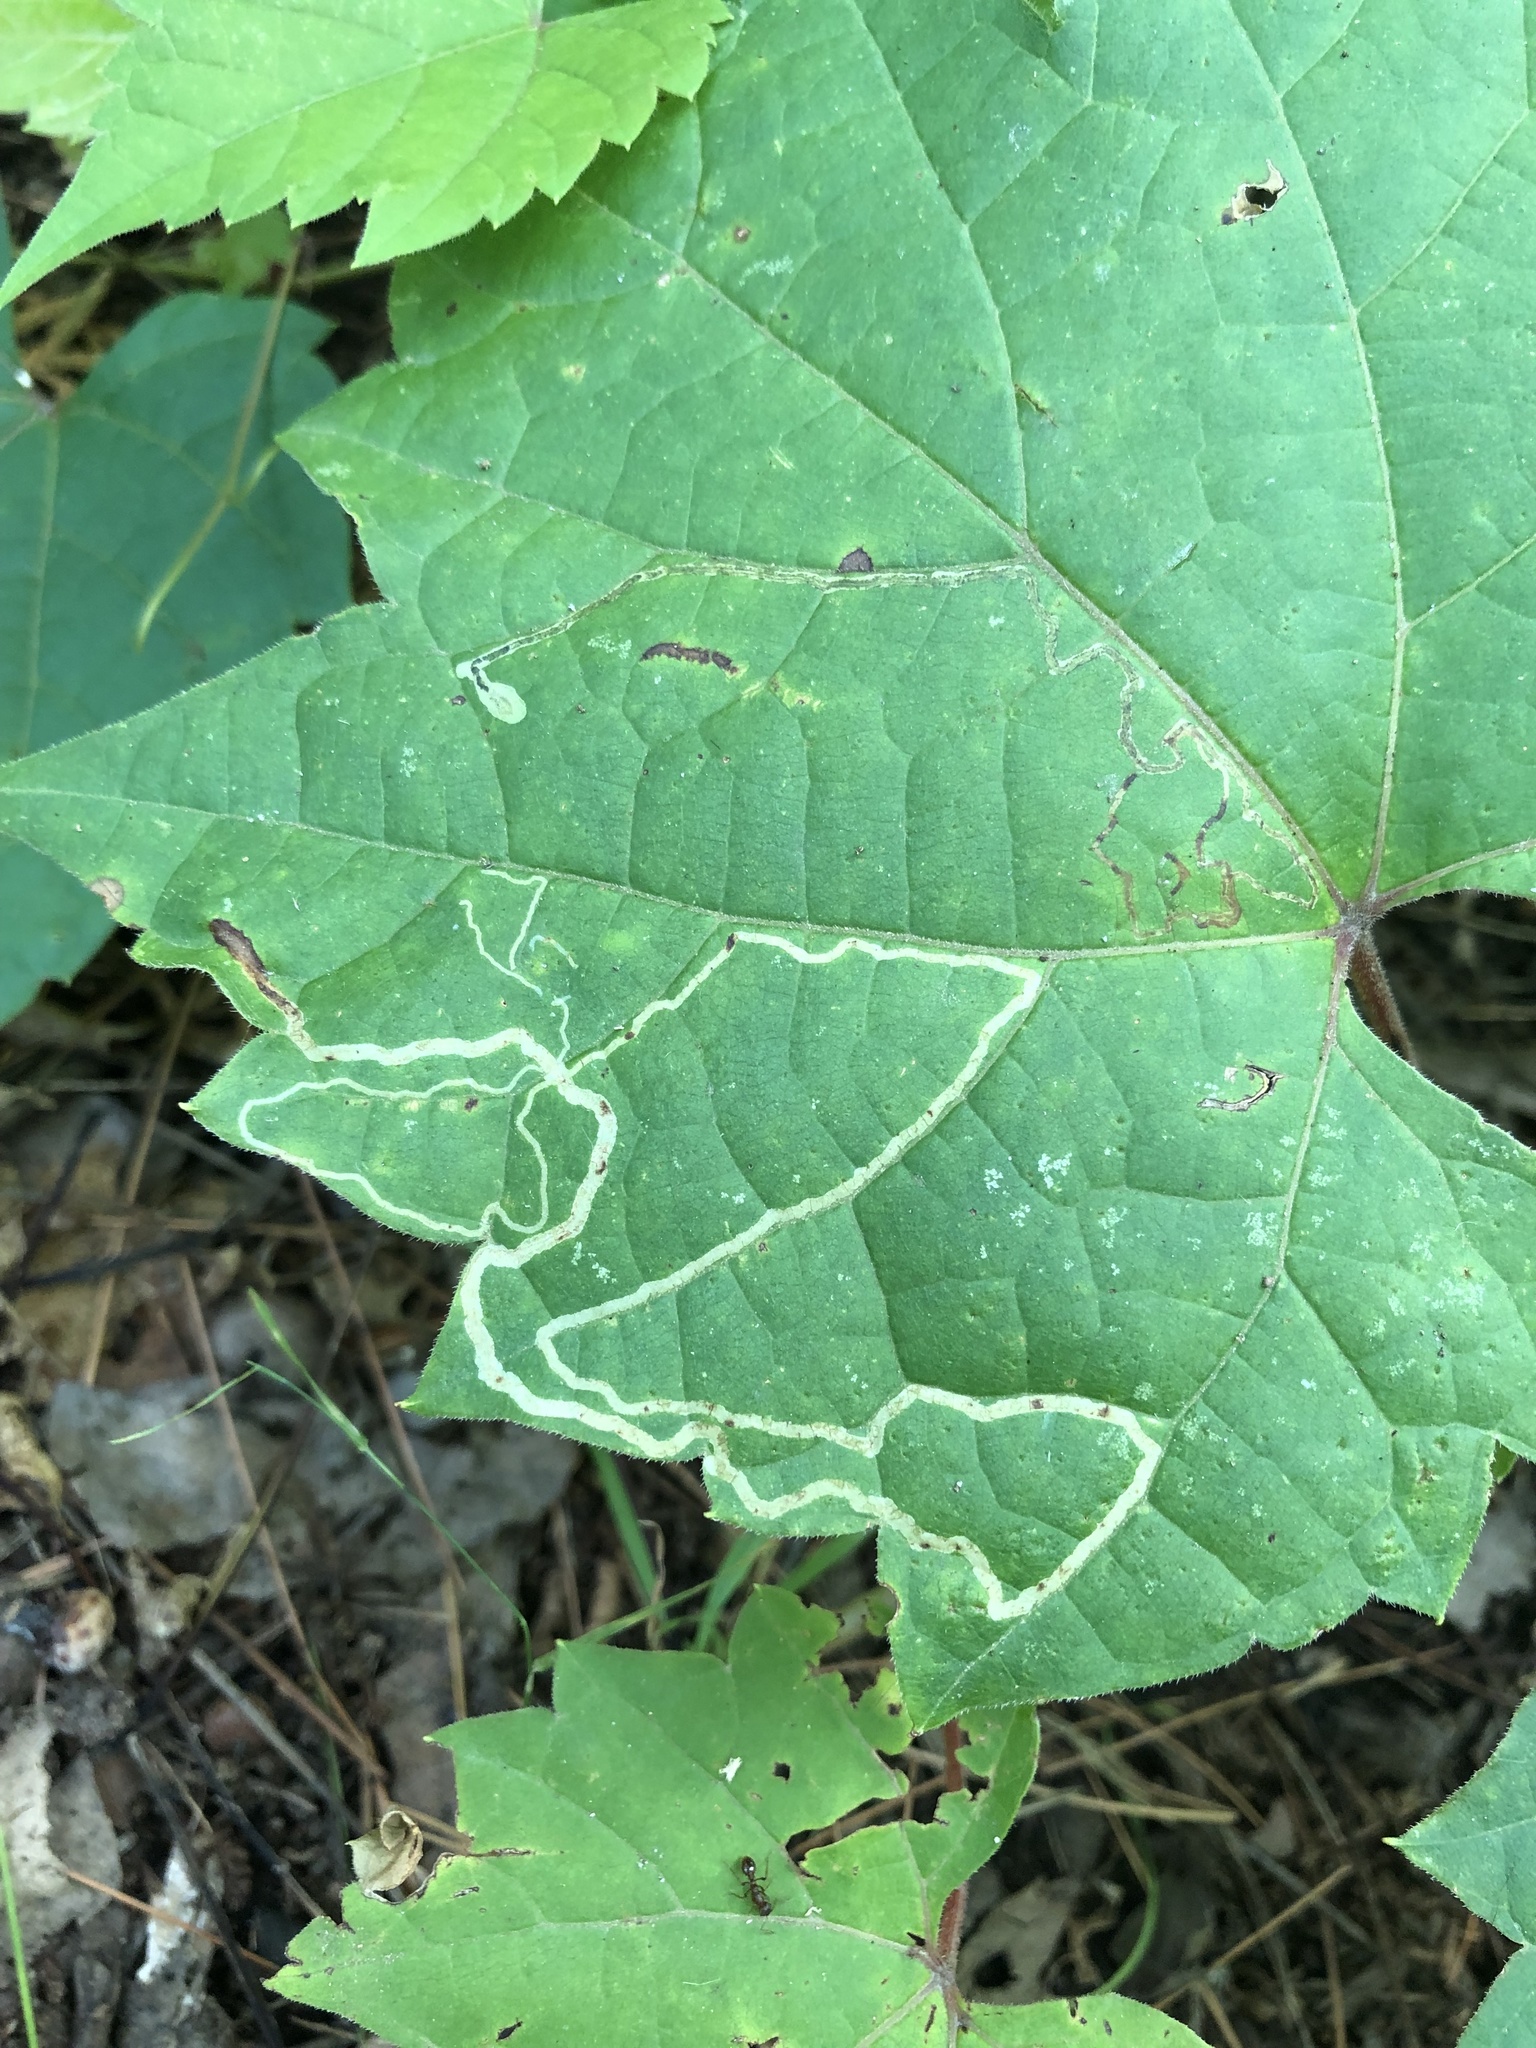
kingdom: Animalia
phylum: Arthropoda
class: Insecta
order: Lepidoptera
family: Gracillariidae
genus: Phyllocnistis
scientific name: Phyllocnistis vitifoliella
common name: Grape leaf-miner moth
